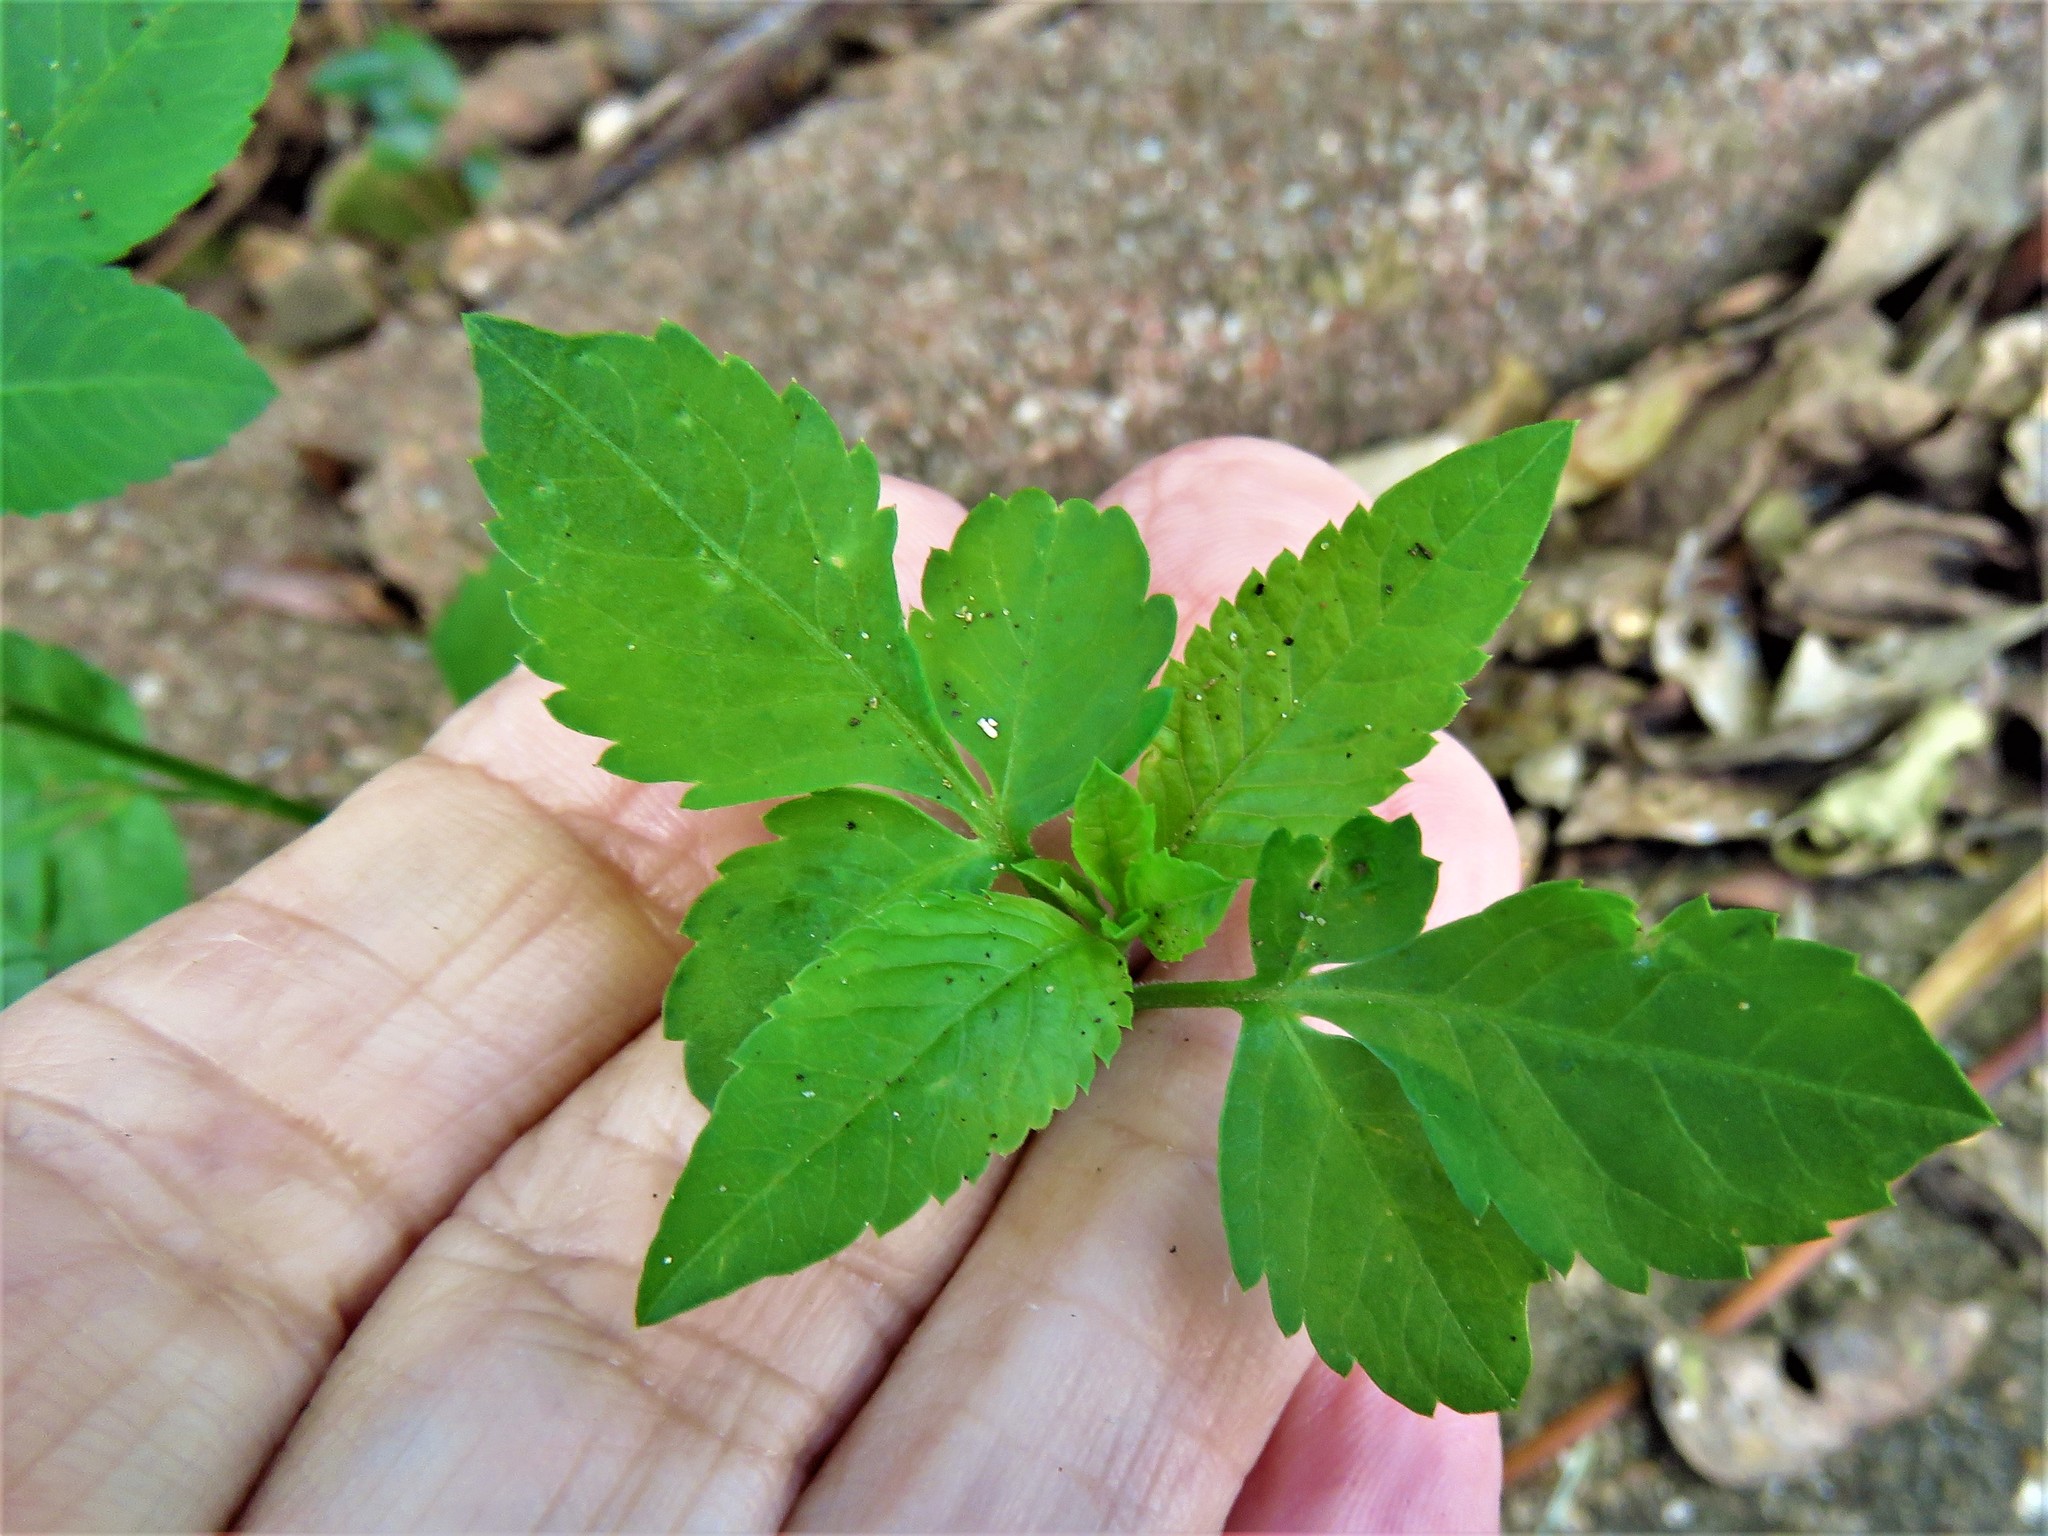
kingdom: Plantae
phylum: Tracheophyta
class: Magnoliopsida
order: Asterales
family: Asteraceae
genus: Bidens
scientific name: Bidens alba
